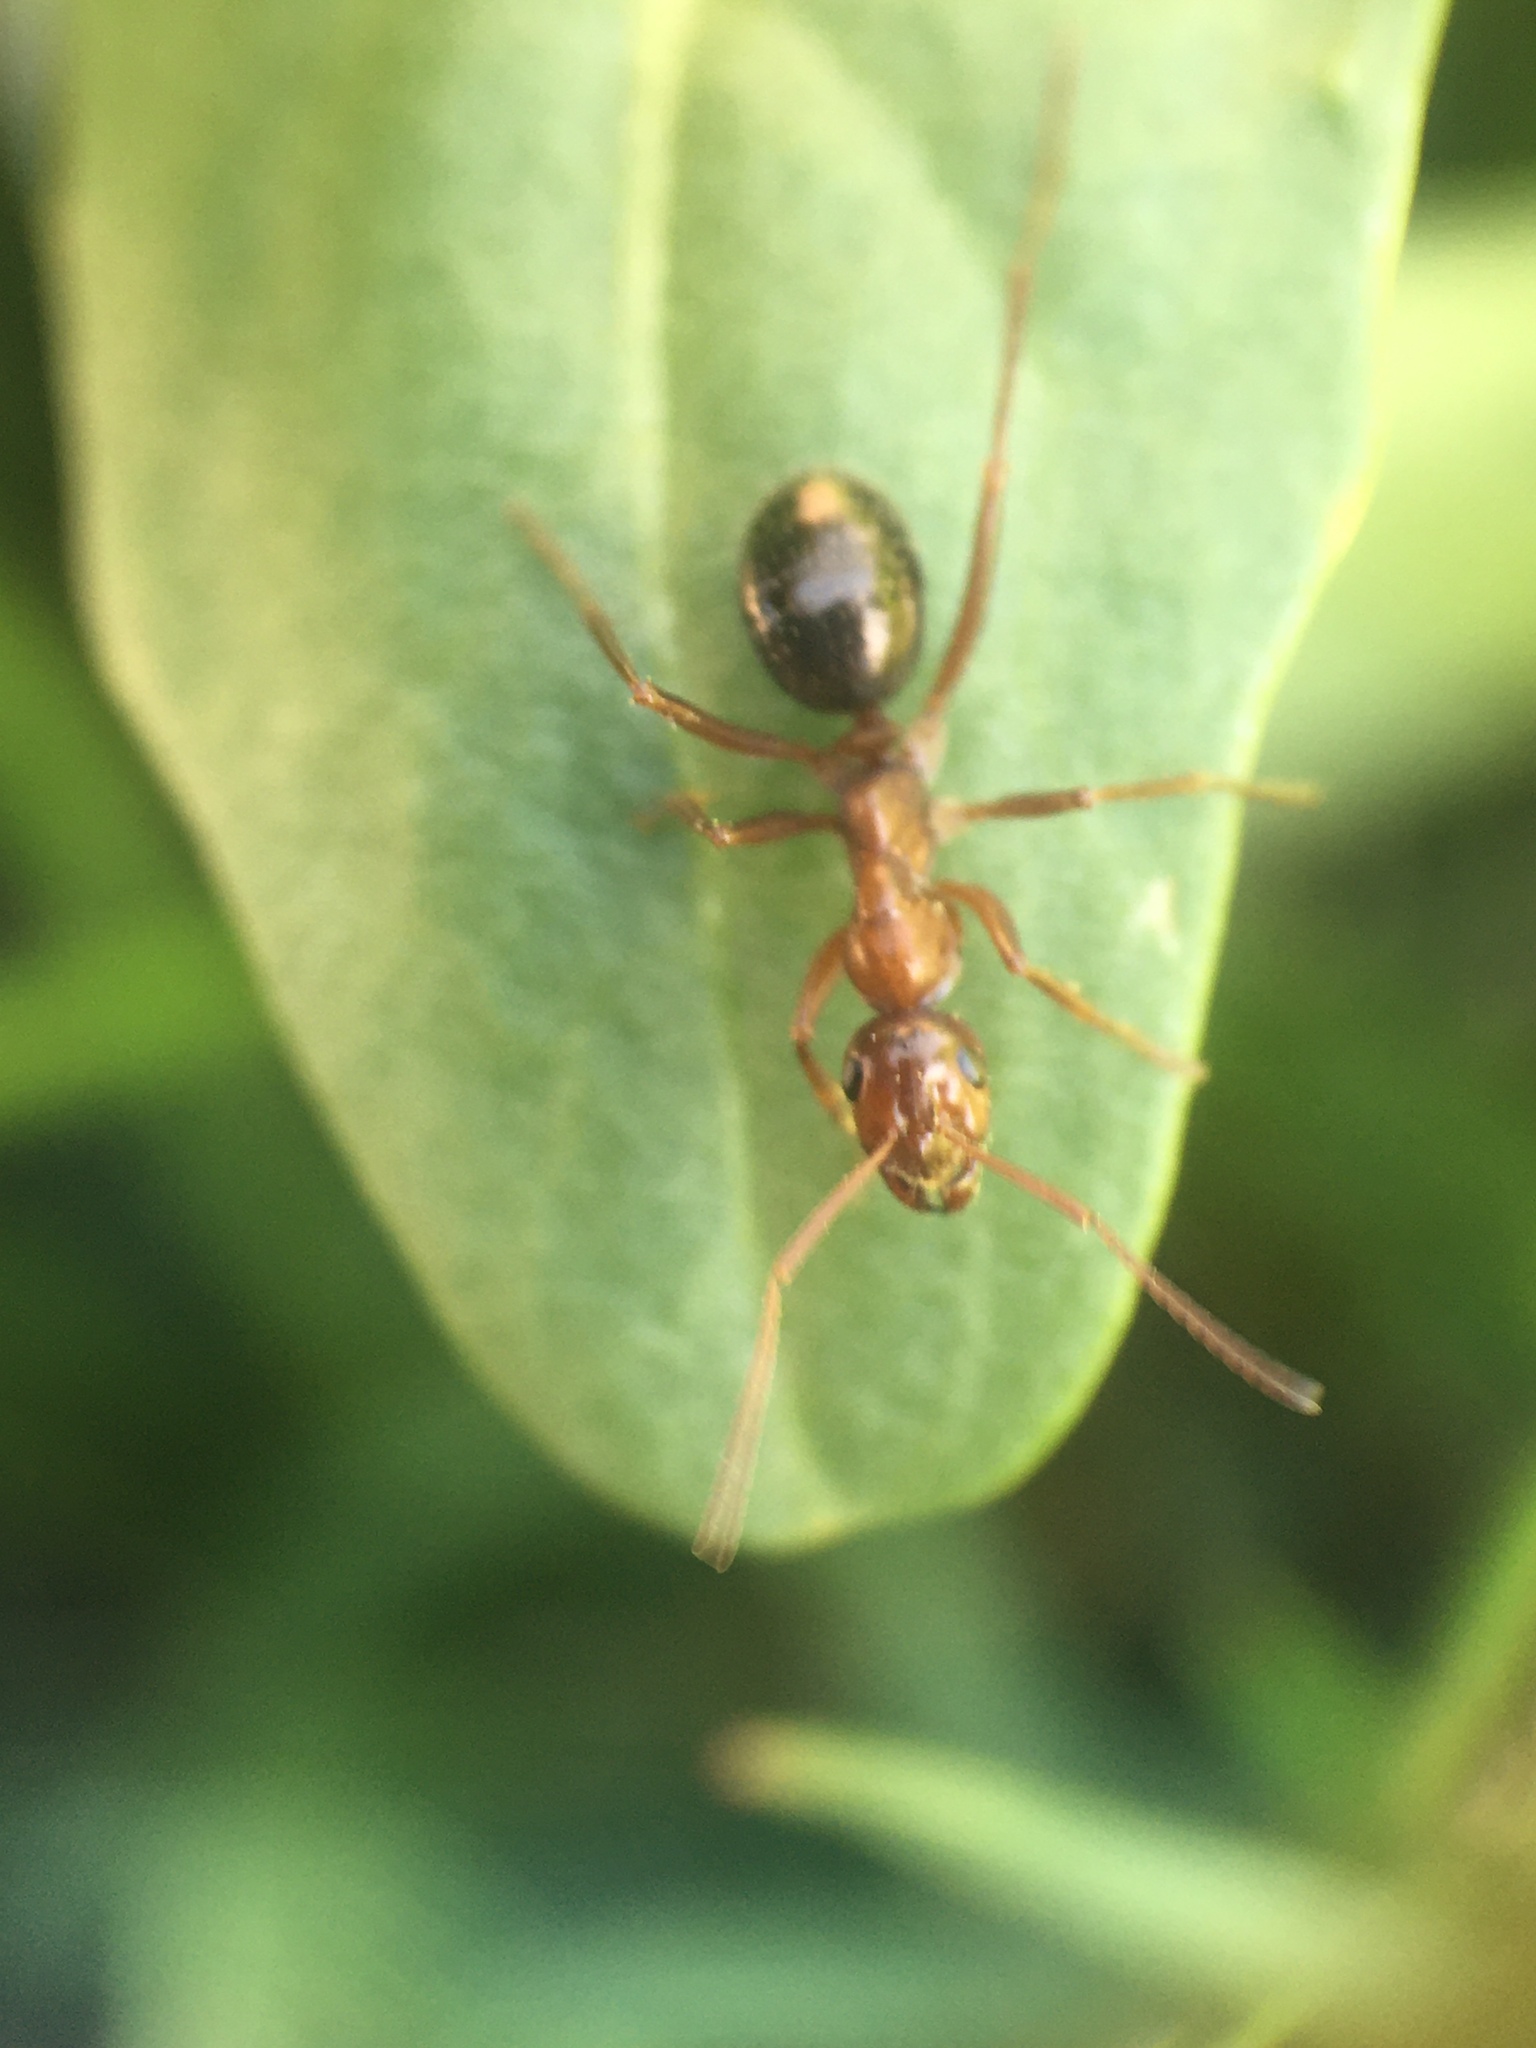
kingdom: Animalia
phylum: Arthropoda
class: Insecta
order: Hymenoptera
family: Formicidae
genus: Formica
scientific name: Formica
